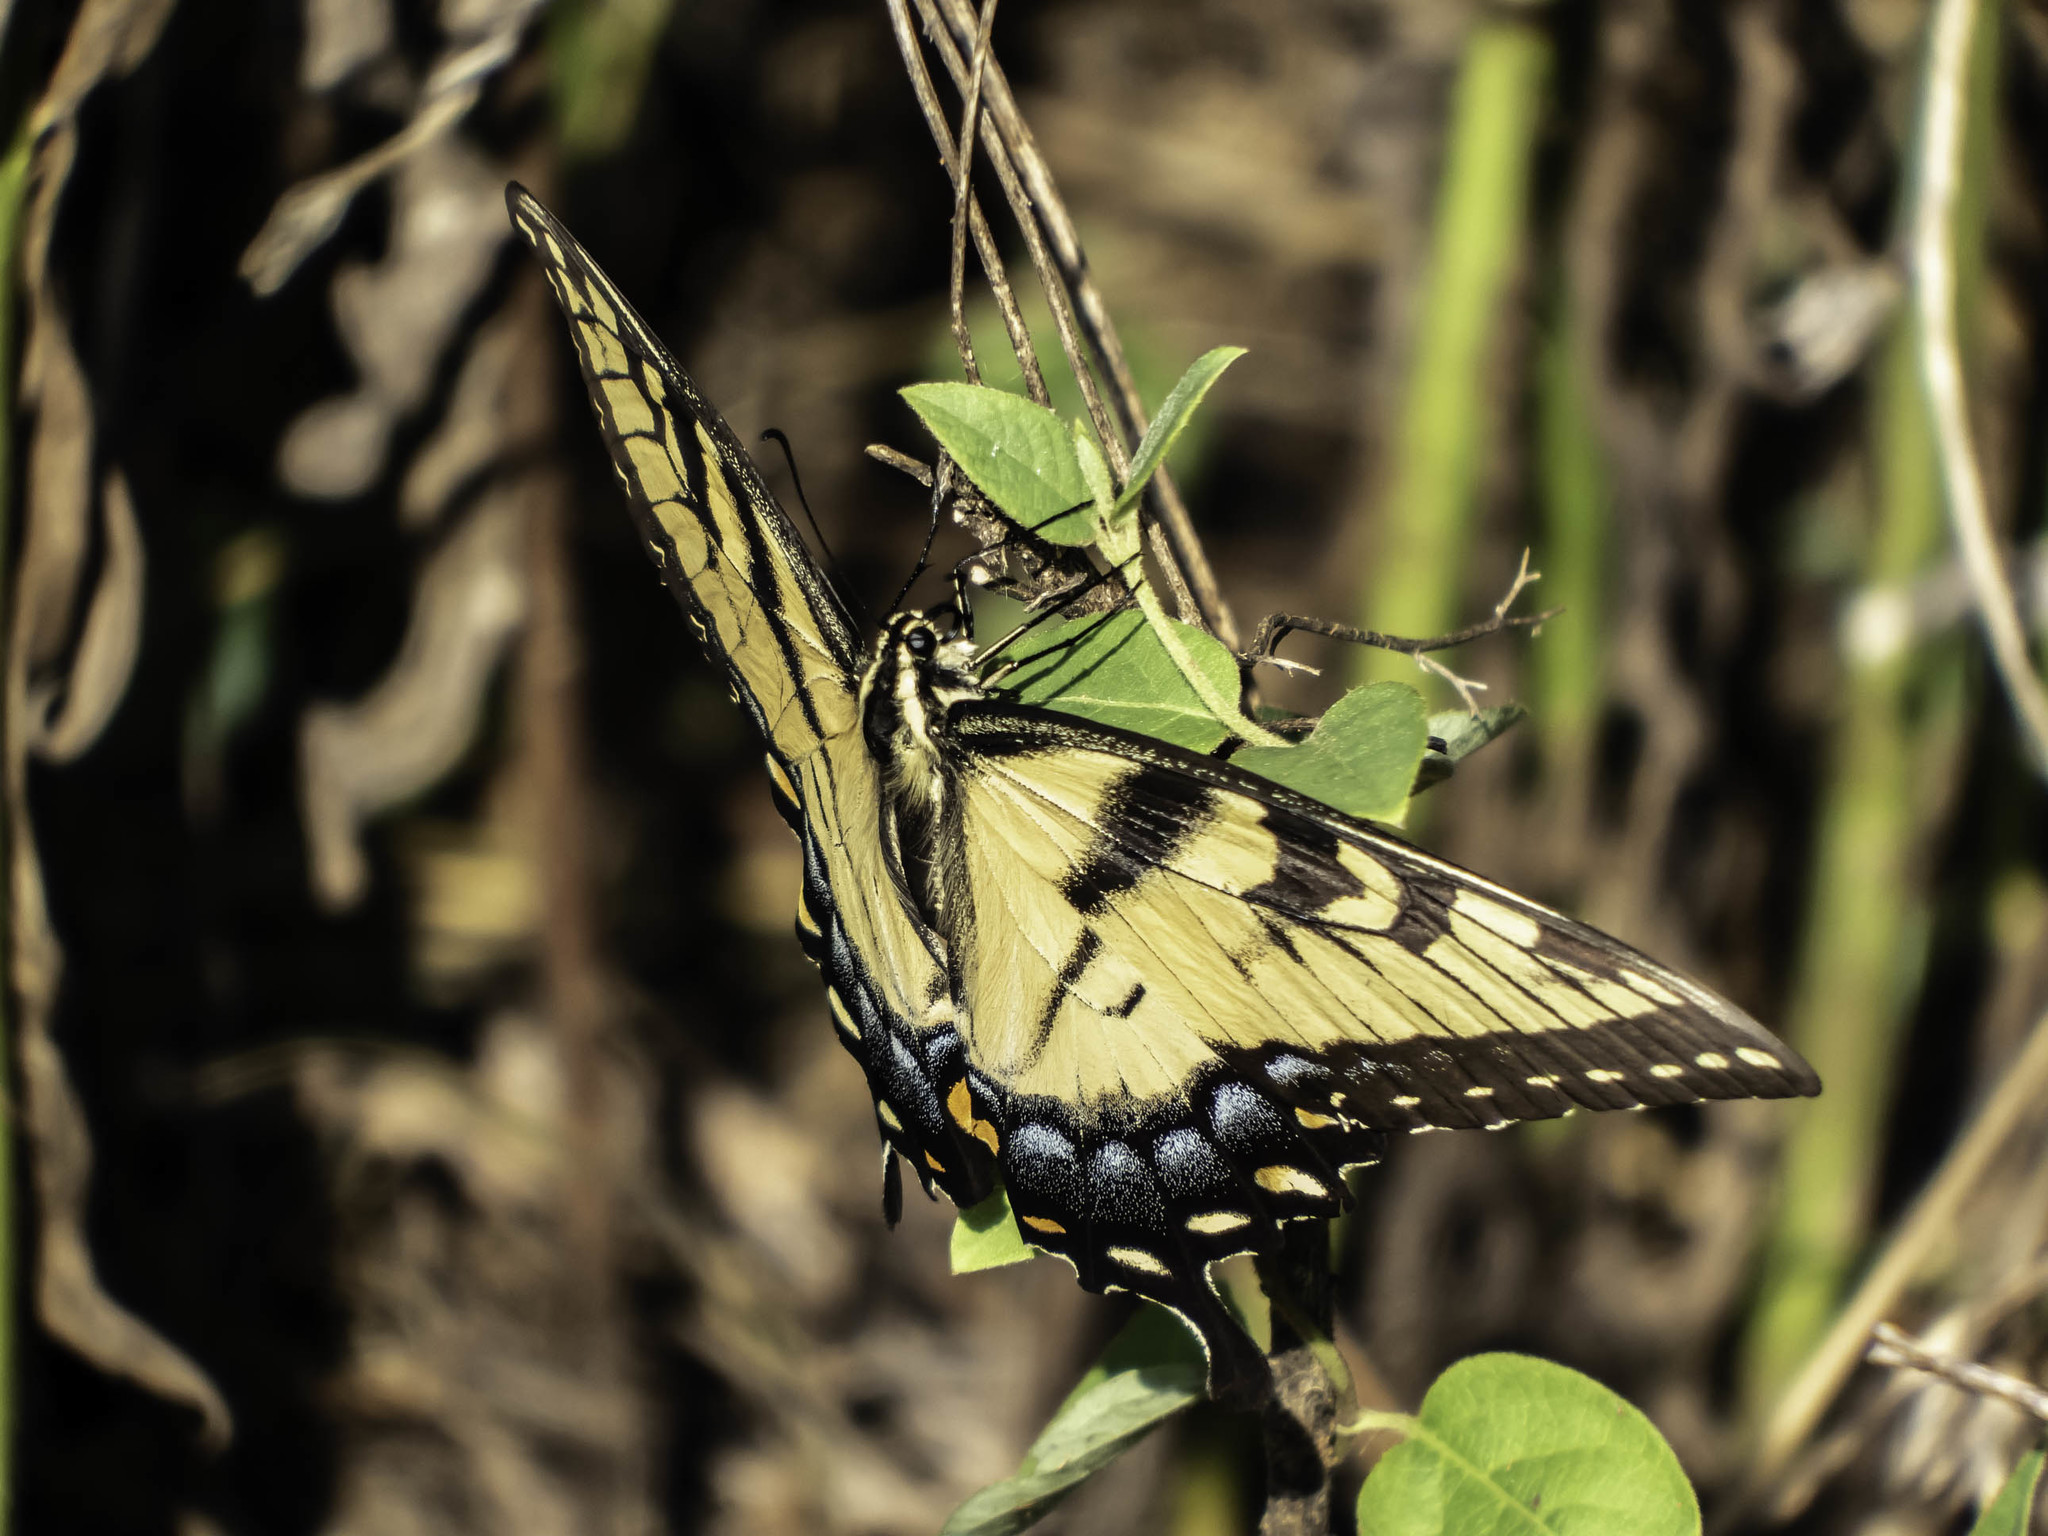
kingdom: Animalia
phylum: Arthropoda
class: Insecta
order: Lepidoptera
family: Papilionidae
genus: Papilio
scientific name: Papilio glaucus
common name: Tiger swallowtail
